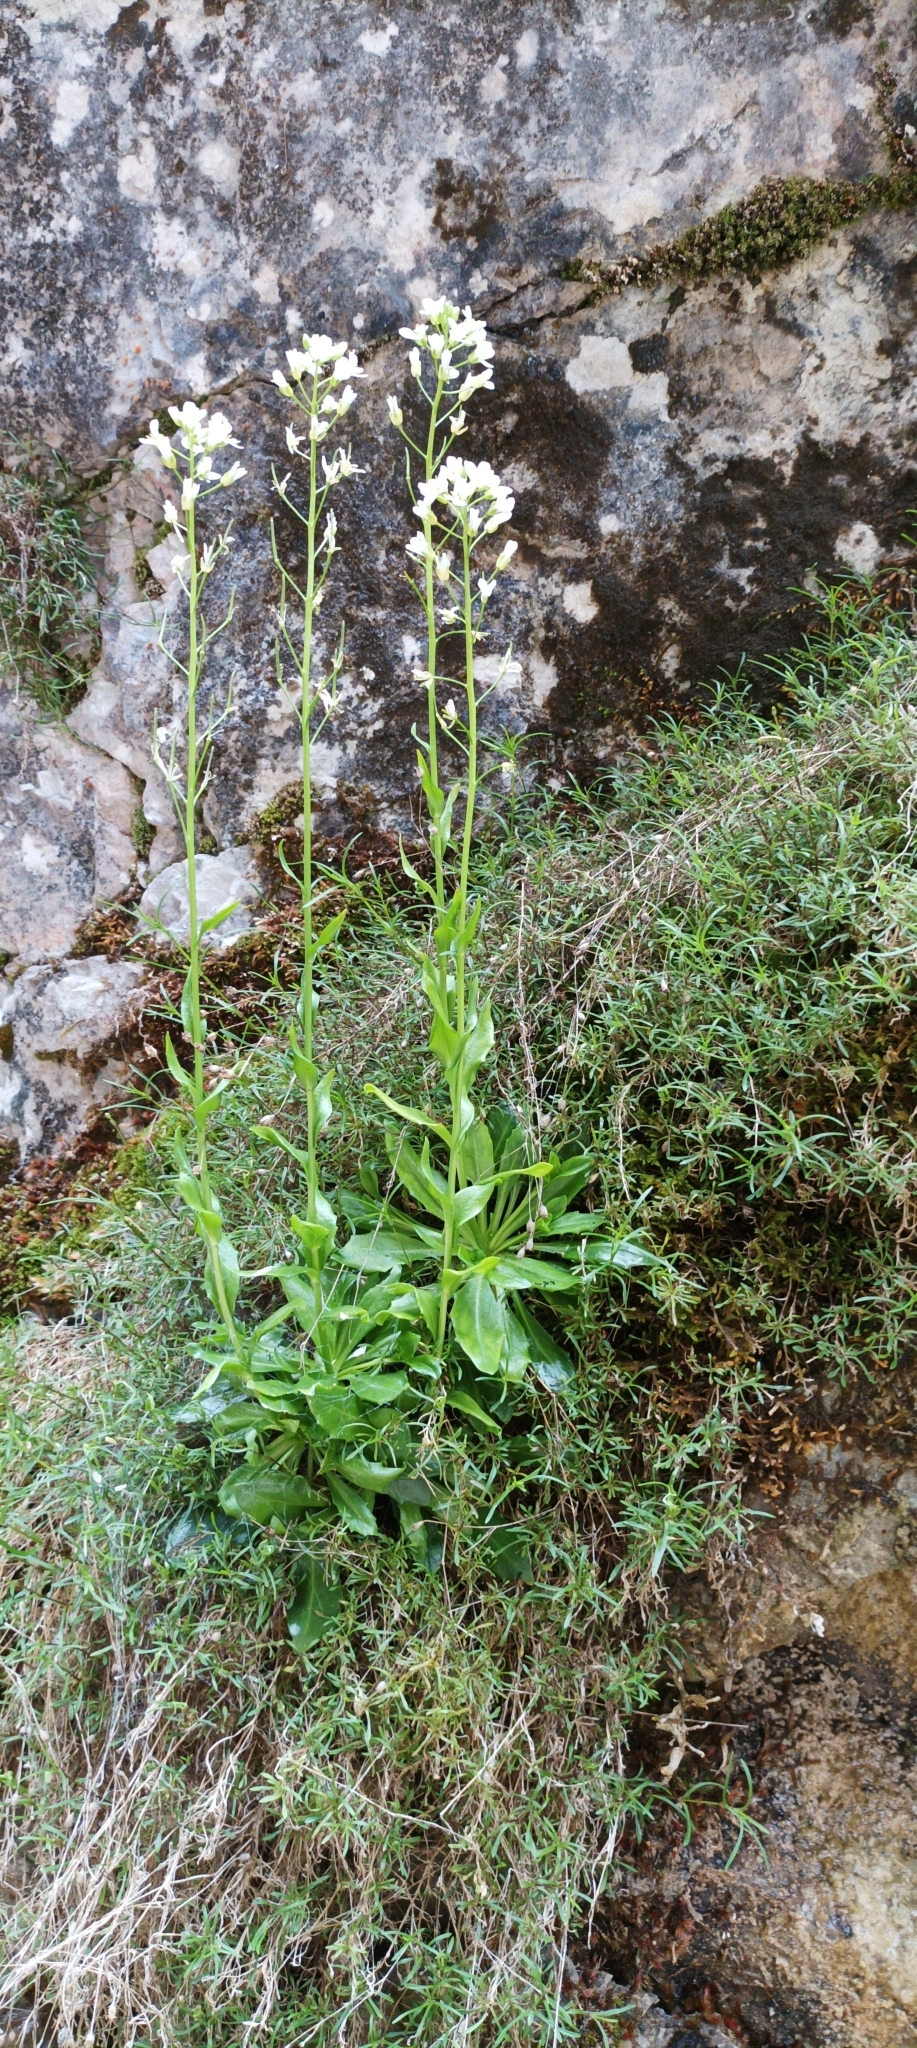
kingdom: Plantae
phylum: Tracheophyta
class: Magnoliopsida
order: Brassicales
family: Brassicaceae
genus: Arabis
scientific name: Arabis soyeri
